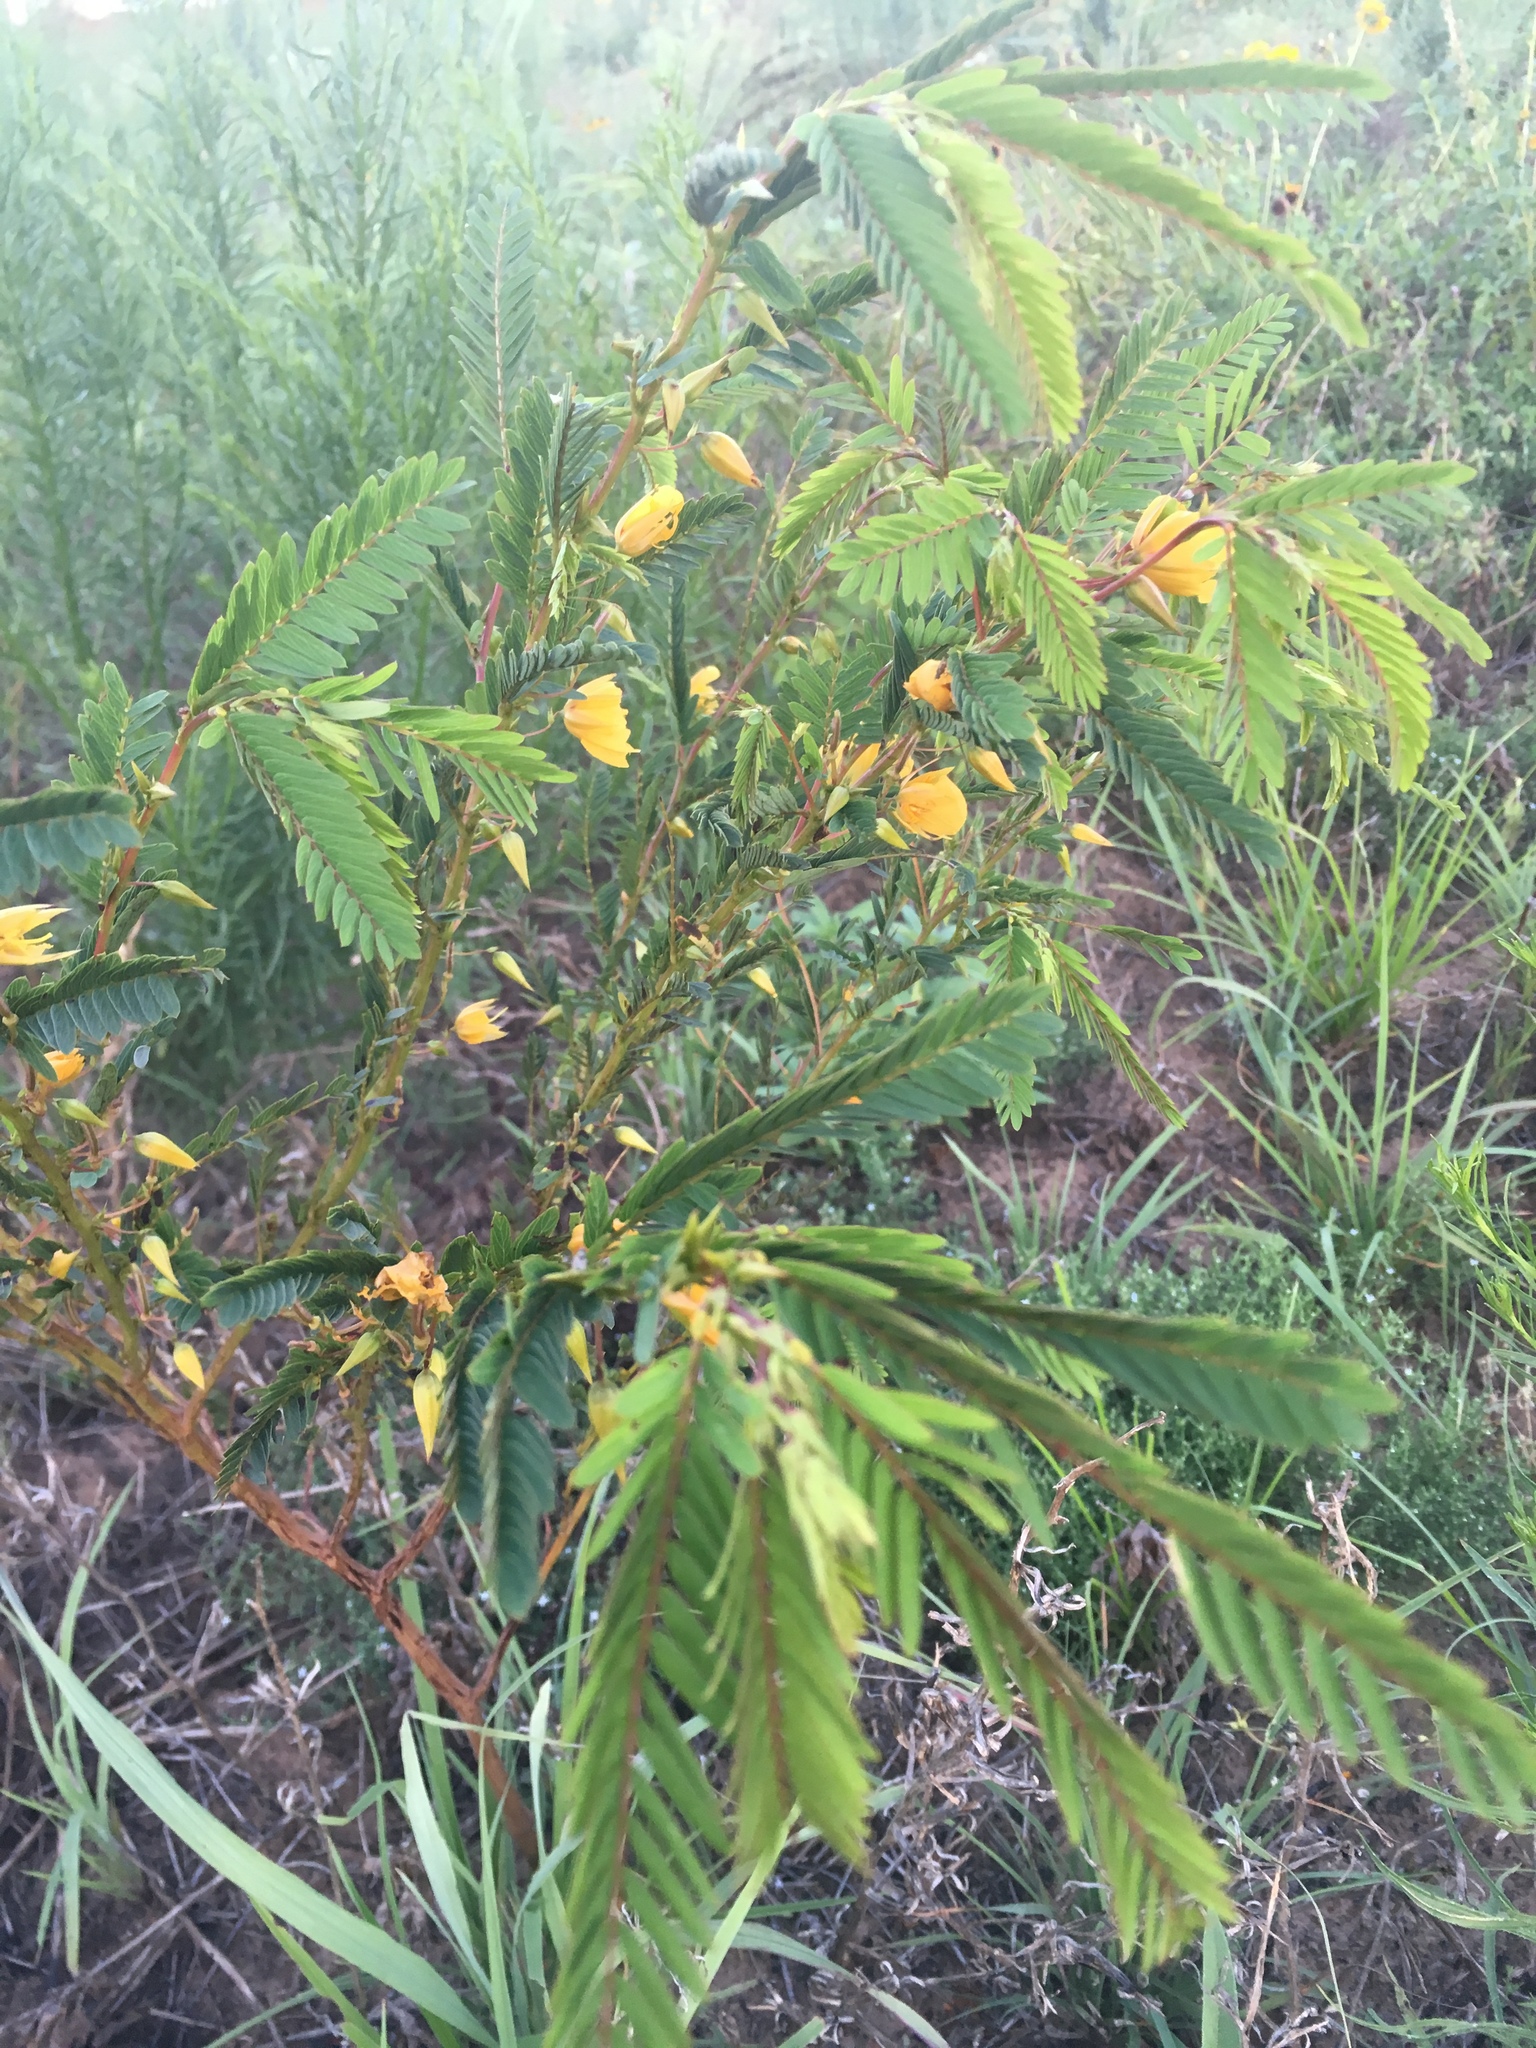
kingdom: Plantae
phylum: Tracheophyta
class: Magnoliopsida
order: Fabales
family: Fabaceae
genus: Chamaecrista
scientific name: Chamaecrista fasciculata
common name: Golden cassia
